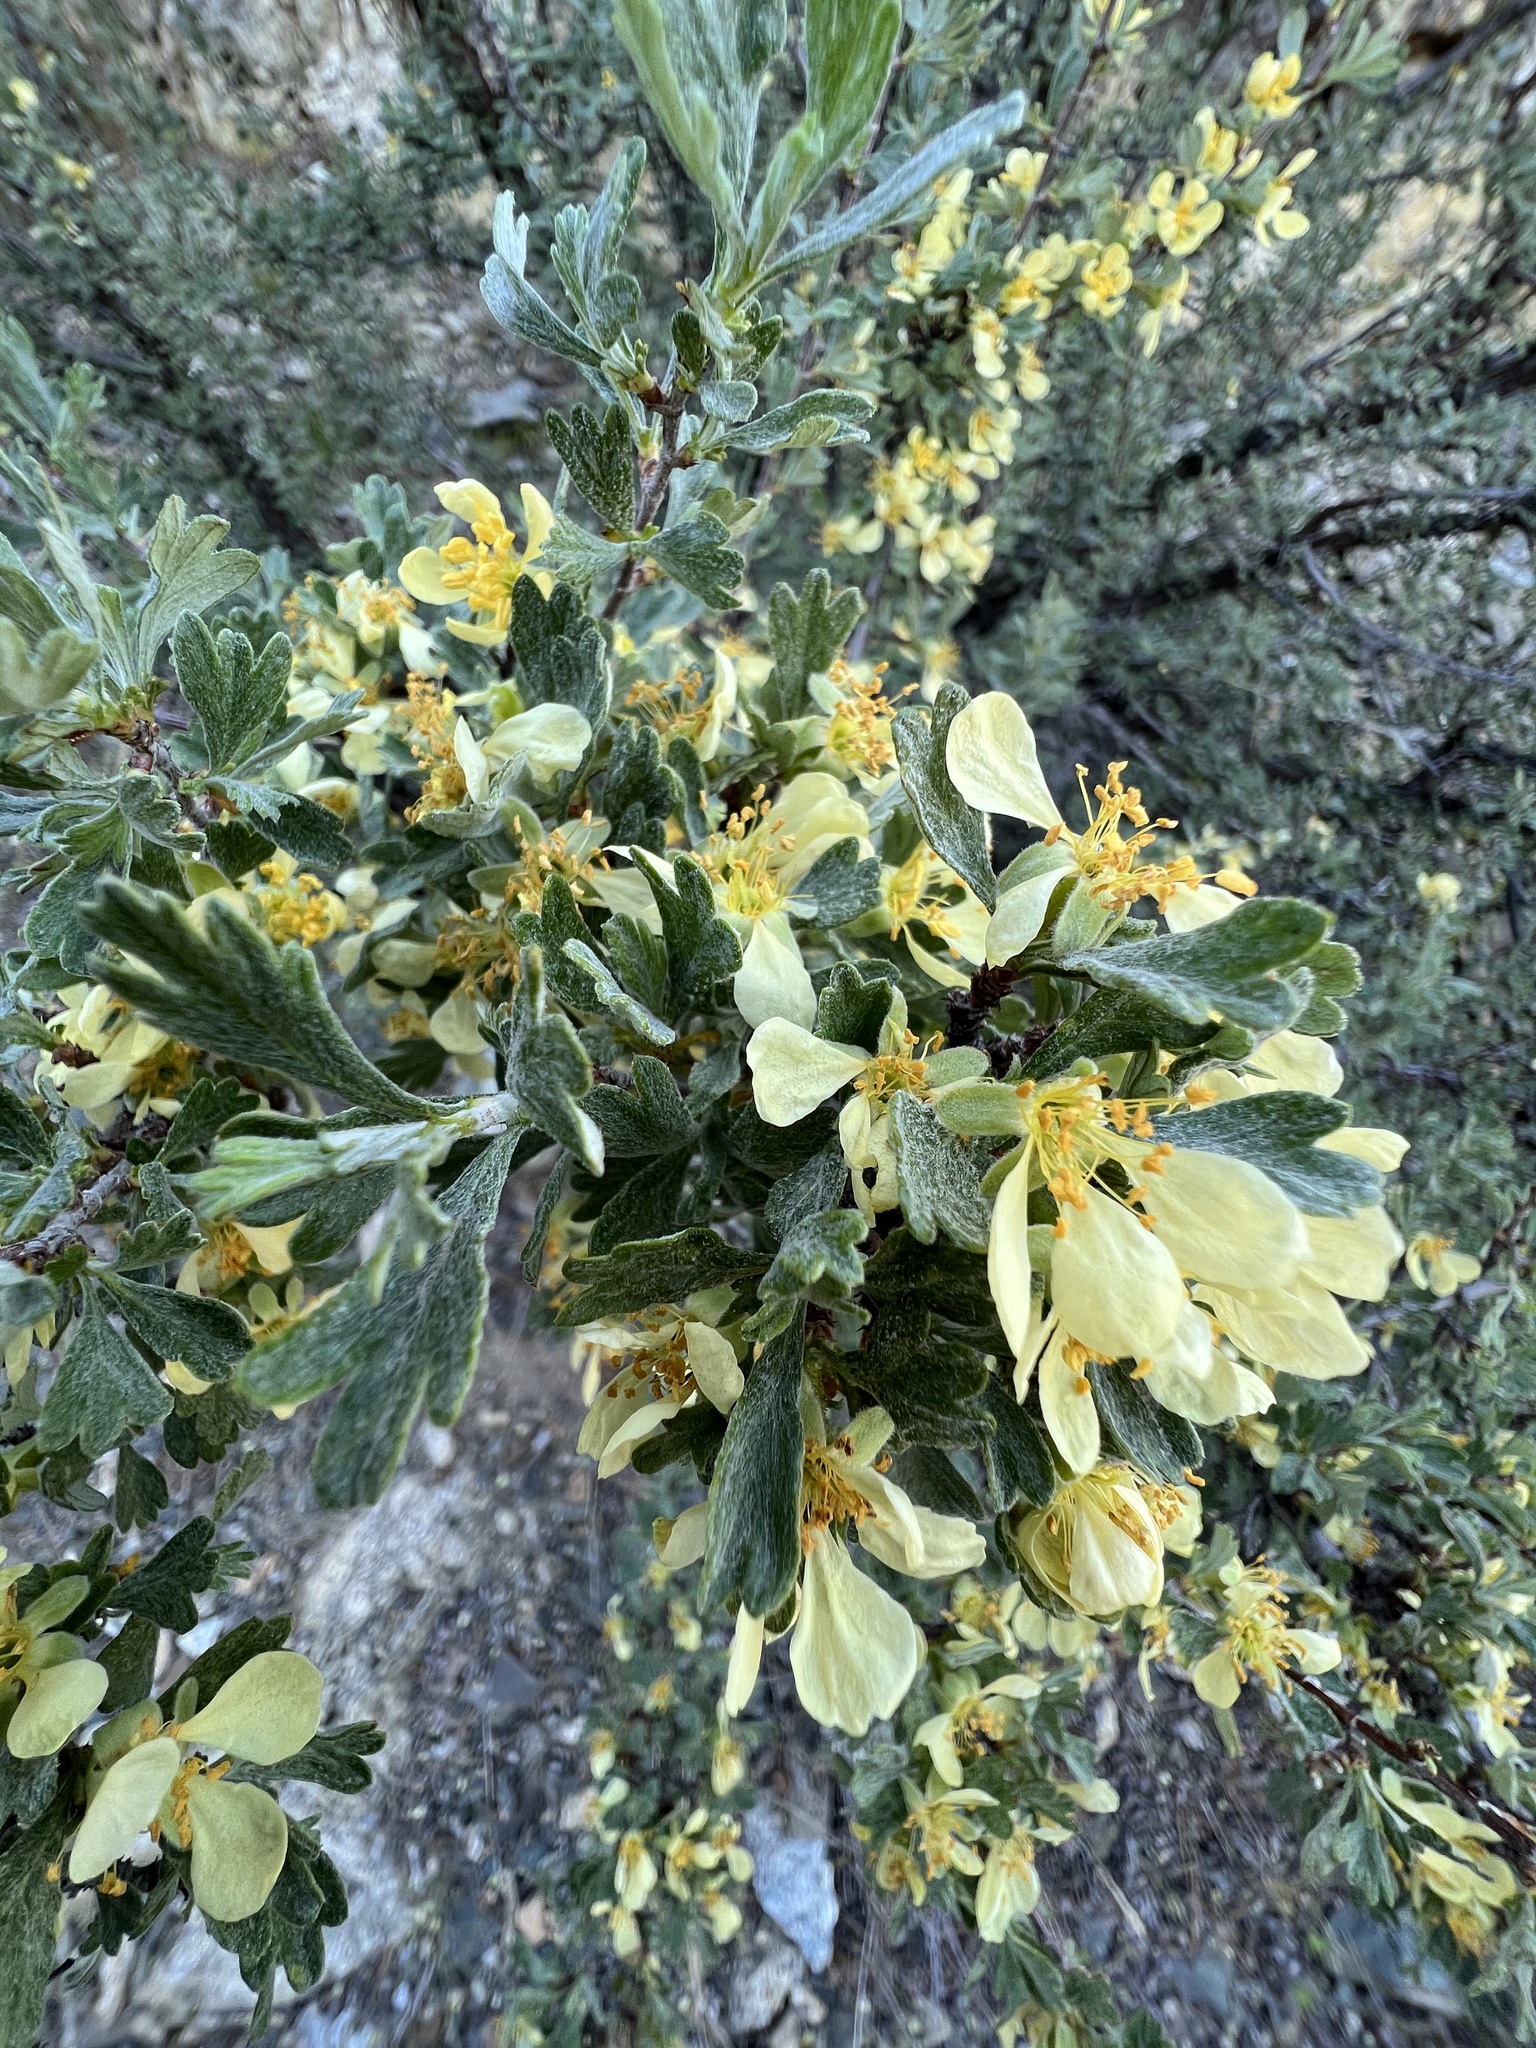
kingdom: Plantae
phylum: Tracheophyta
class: Magnoliopsida
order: Rosales
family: Rosaceae
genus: Purshia
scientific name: Purshia tridentata
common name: Antelope bitterbrush
